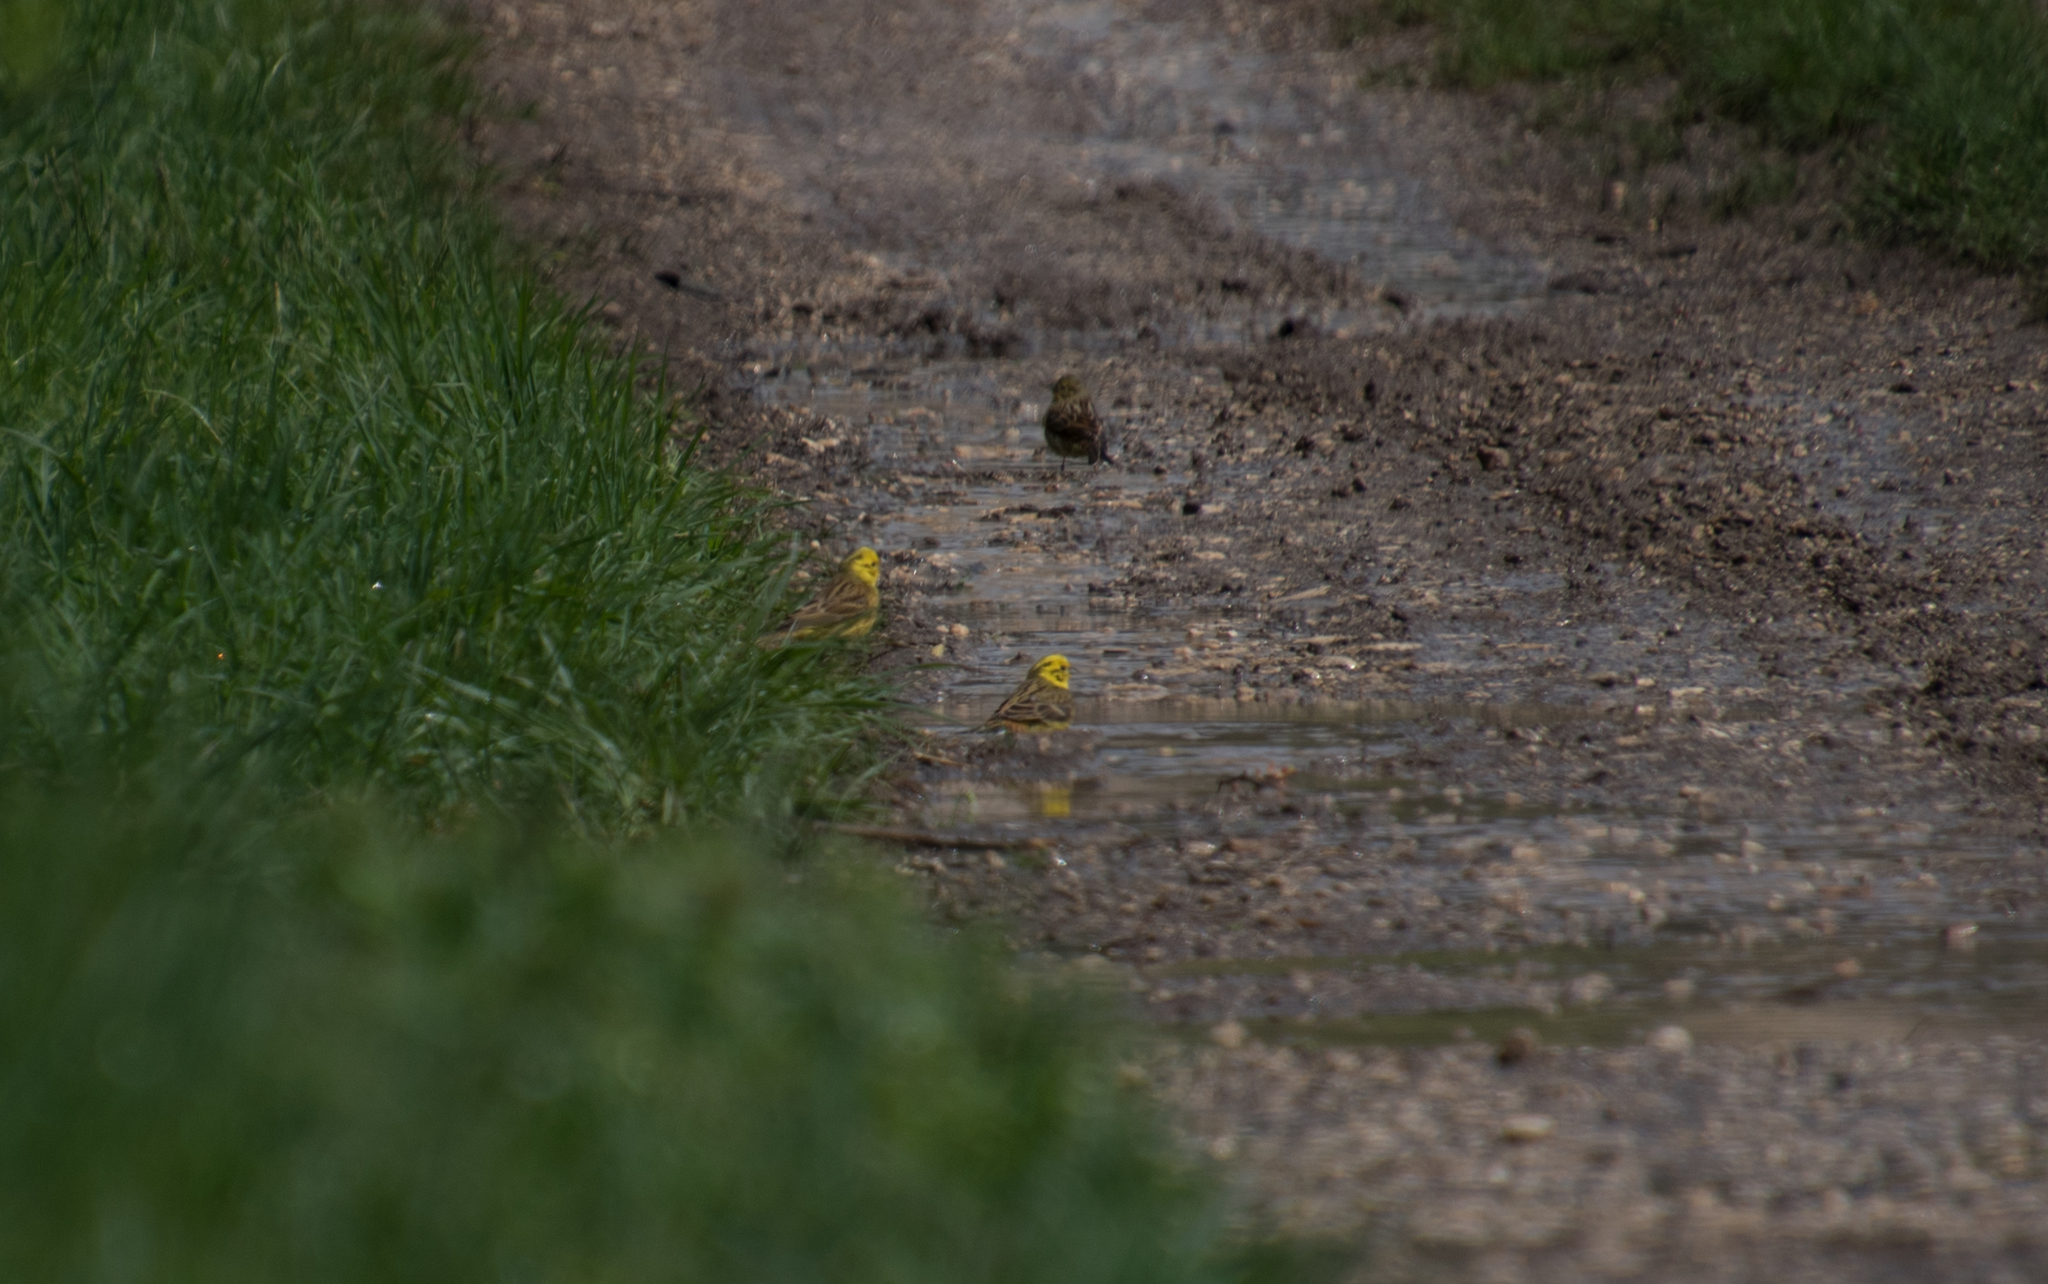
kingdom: Animalia
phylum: Chordata
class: Aves
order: Passeriformes
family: Emberizidae
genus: Emberiza
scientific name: Emberiza citrinella
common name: Yellowhammer
